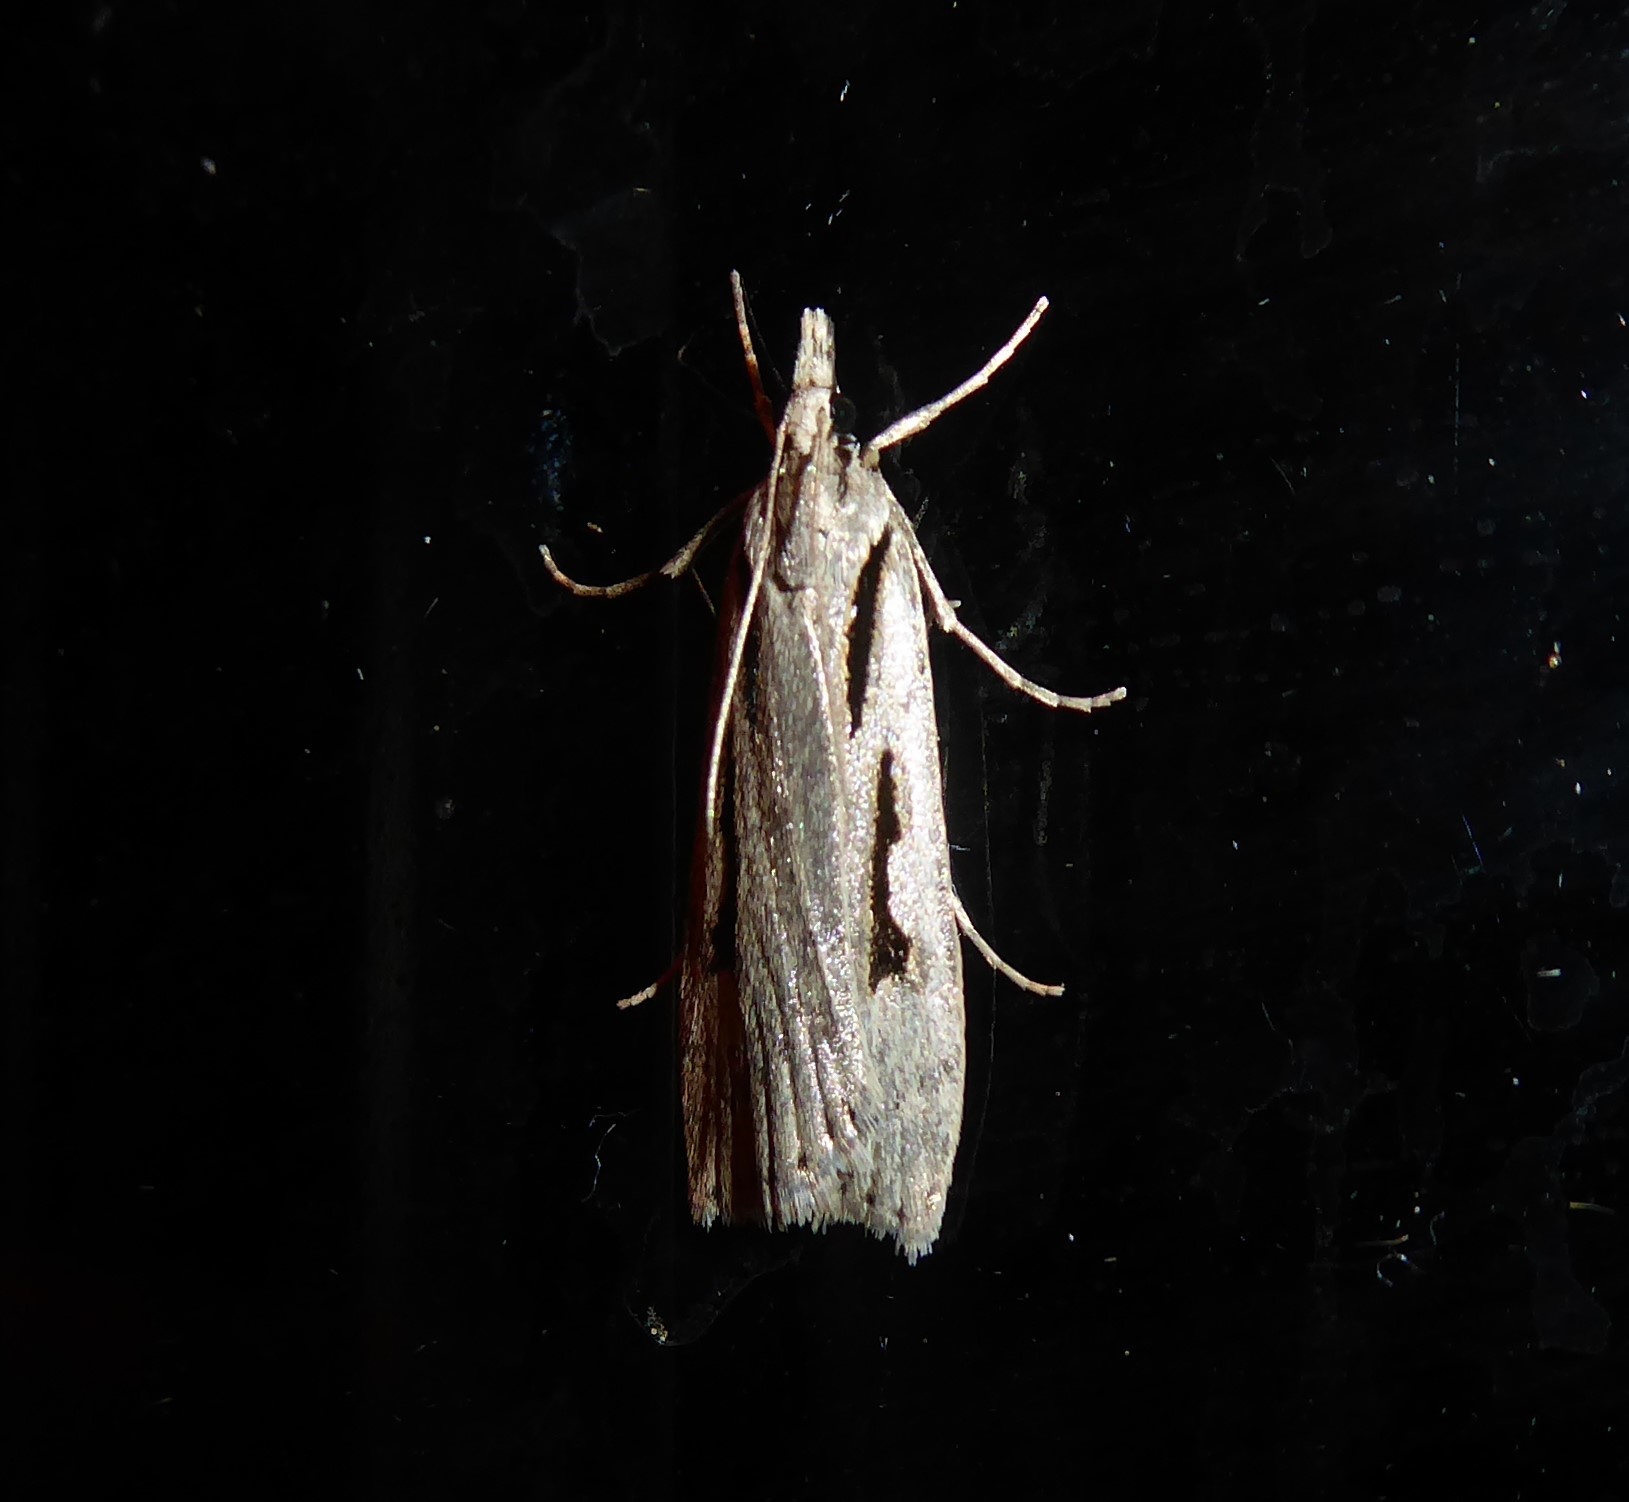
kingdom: Animalia
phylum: Arthropoda
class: Insecta
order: Lepidoptera
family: Crambidae
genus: Scoparia
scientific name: Scoparia rotuellus
